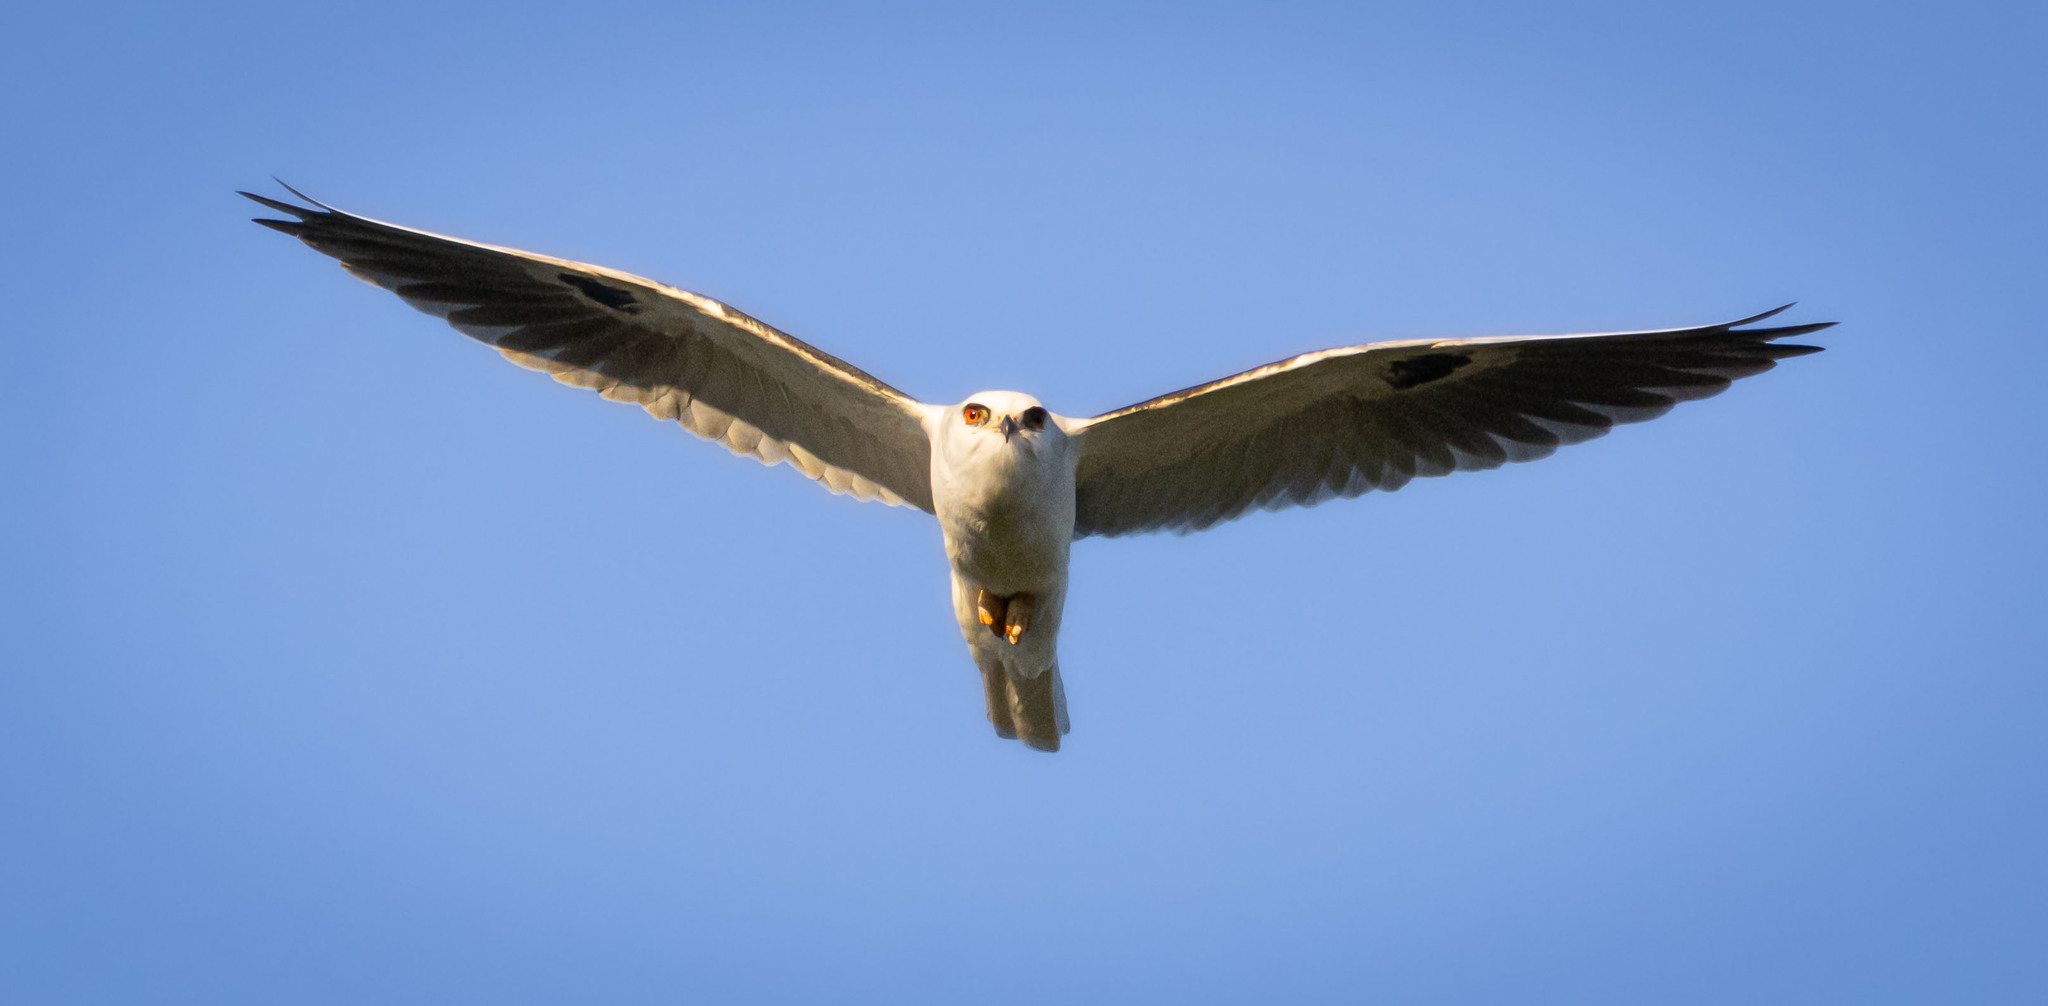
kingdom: Animalia
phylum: Chordata
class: Aves
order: Accipitriformes
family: Accipitridae
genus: Elanus
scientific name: Elanus leucurus
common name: White-tailed kite
